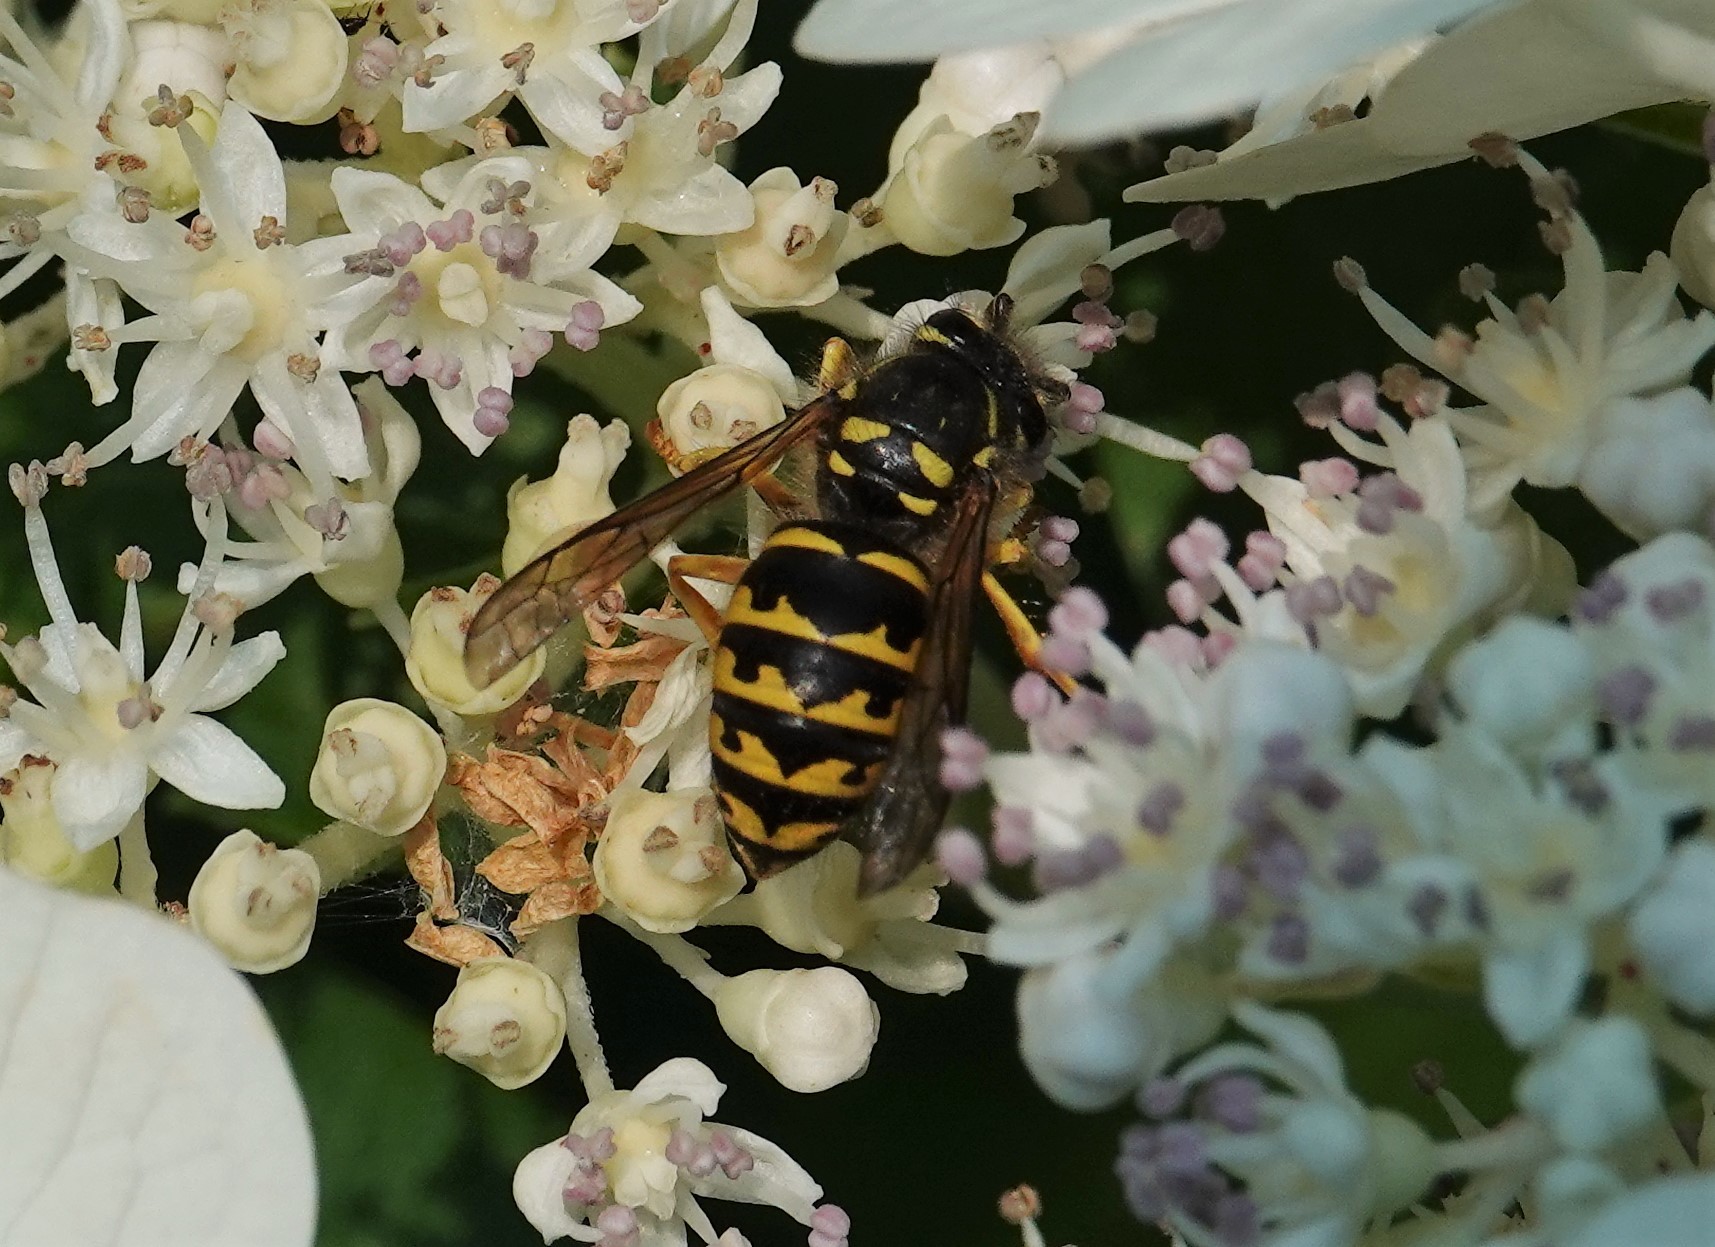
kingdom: Animalia
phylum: Arthropoda
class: Insecta
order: Hymenoptera
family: Vespidae
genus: Dolichovespula
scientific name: Dolichovespula arenaria
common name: Aerial yellowjacket
